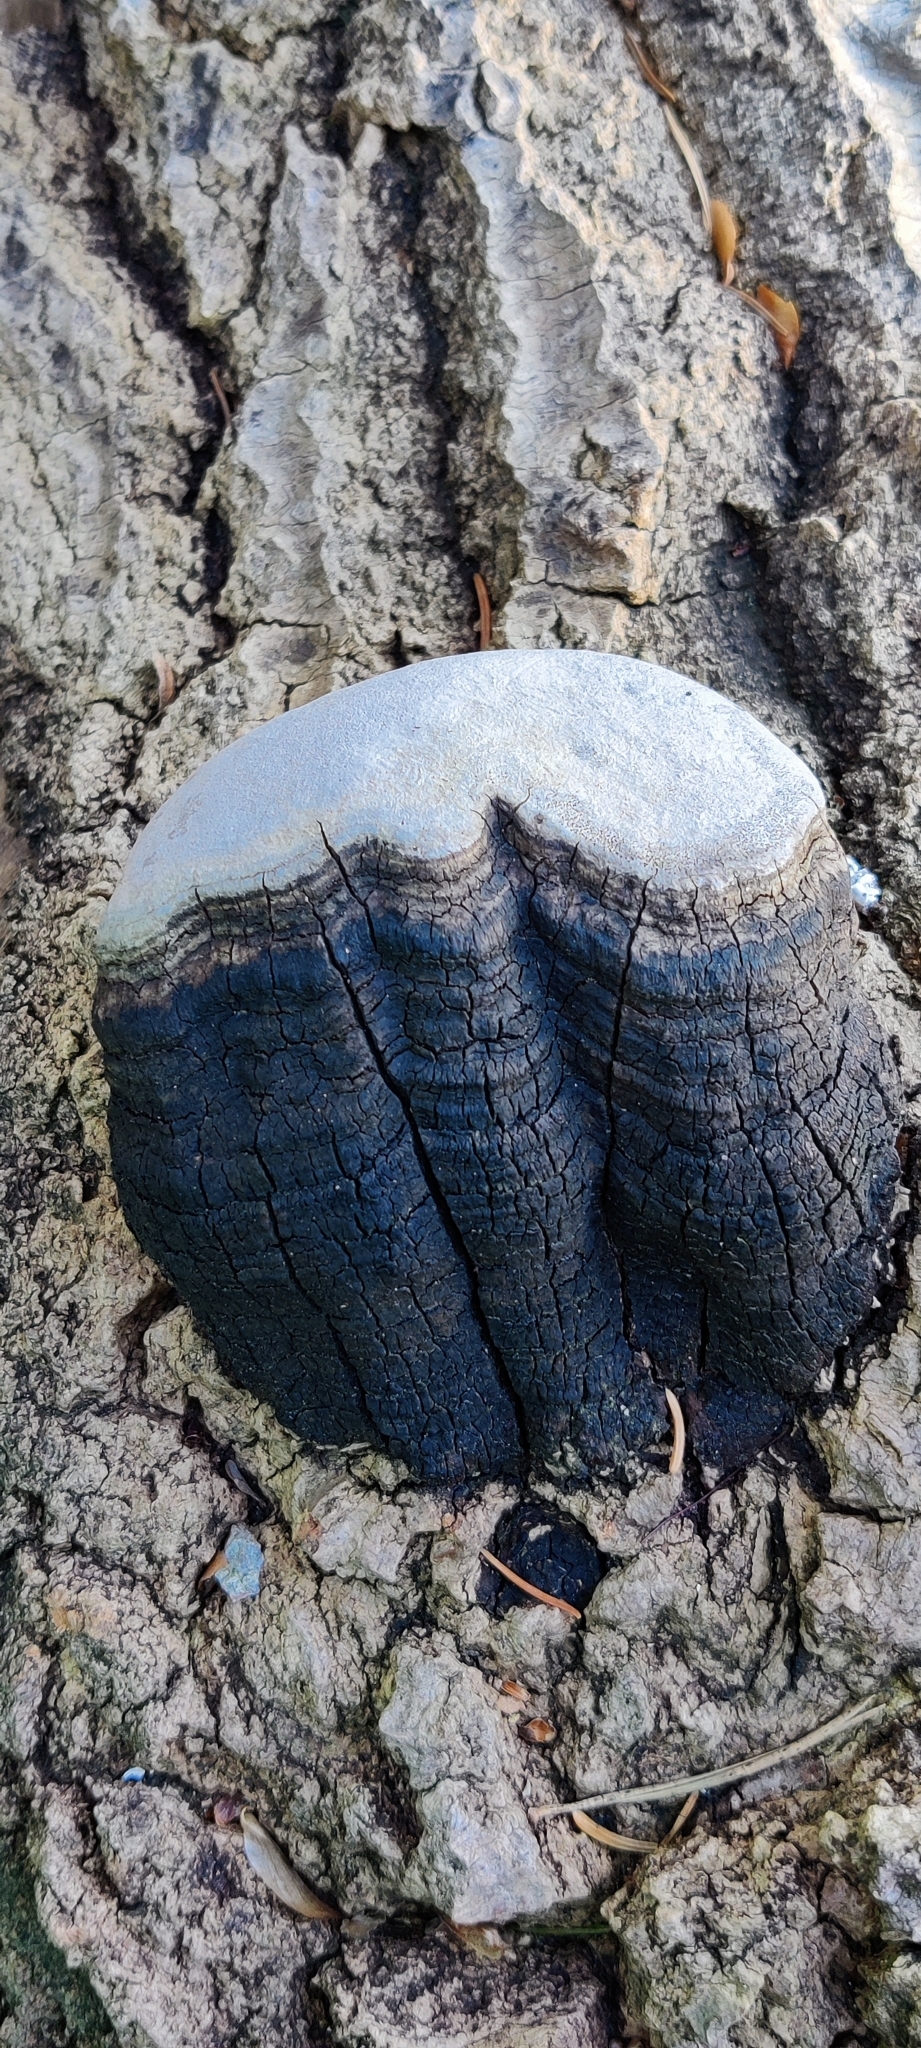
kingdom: Fungi
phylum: Basidiomycota
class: Agaricomycetes
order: Hymenochaetales
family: Hymenochaetaceae
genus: Phellinus
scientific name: Phellinus tremulae
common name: Aspen bracket
